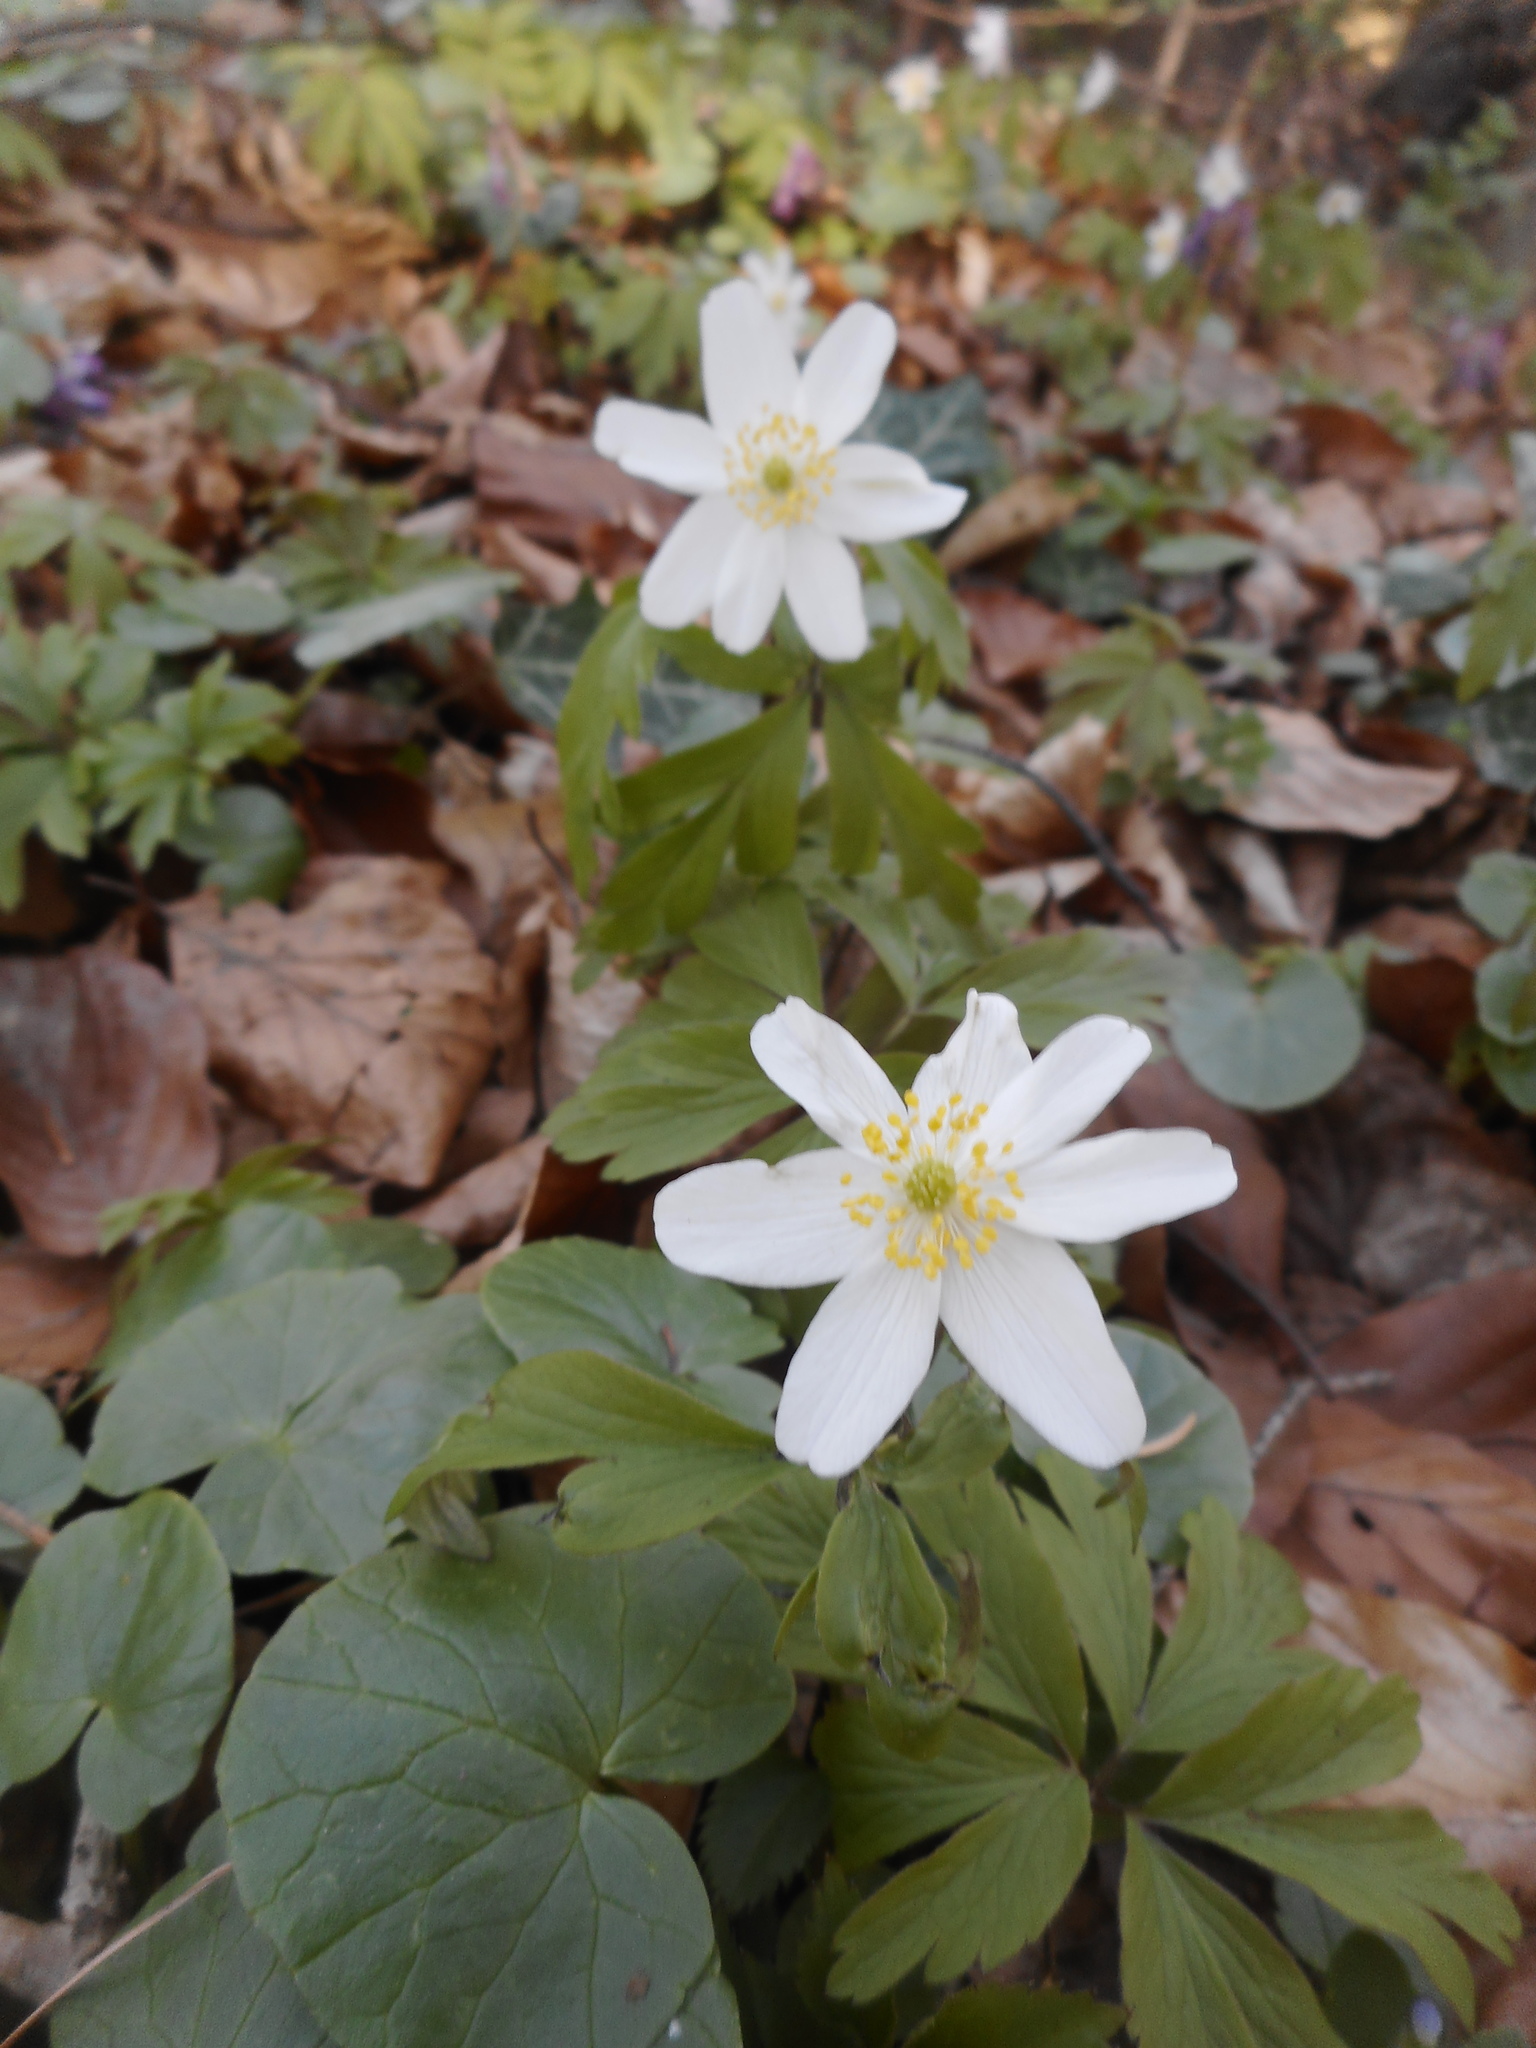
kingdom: Plantae
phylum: Tracheophyta
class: Magnoliopsida
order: Ranunculales
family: Ranunculaceae
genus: Anemone
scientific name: Anemone nemorosa
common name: Wood anemone
